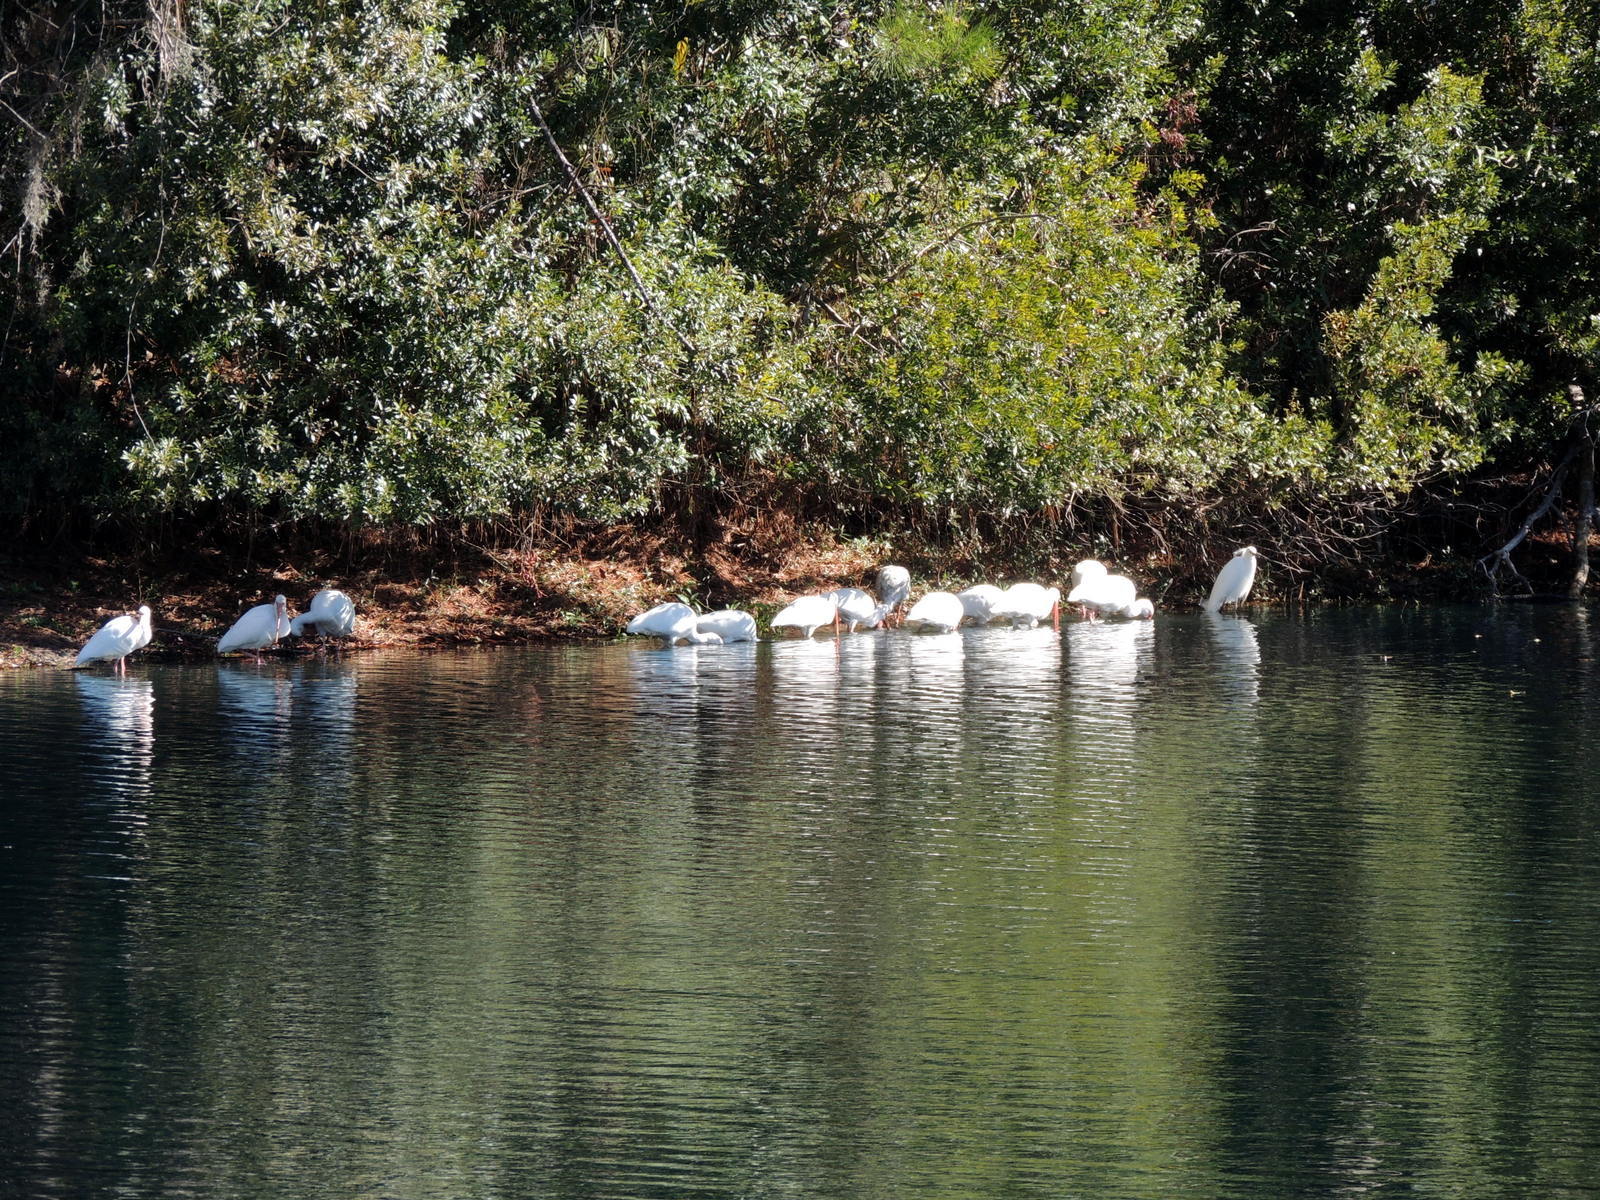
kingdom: Animalia
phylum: Chordata
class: Aves
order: Pelecaniformes
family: Threskiornithidae
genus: Eudocimus
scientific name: Eudocimus albus
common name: White ibis
